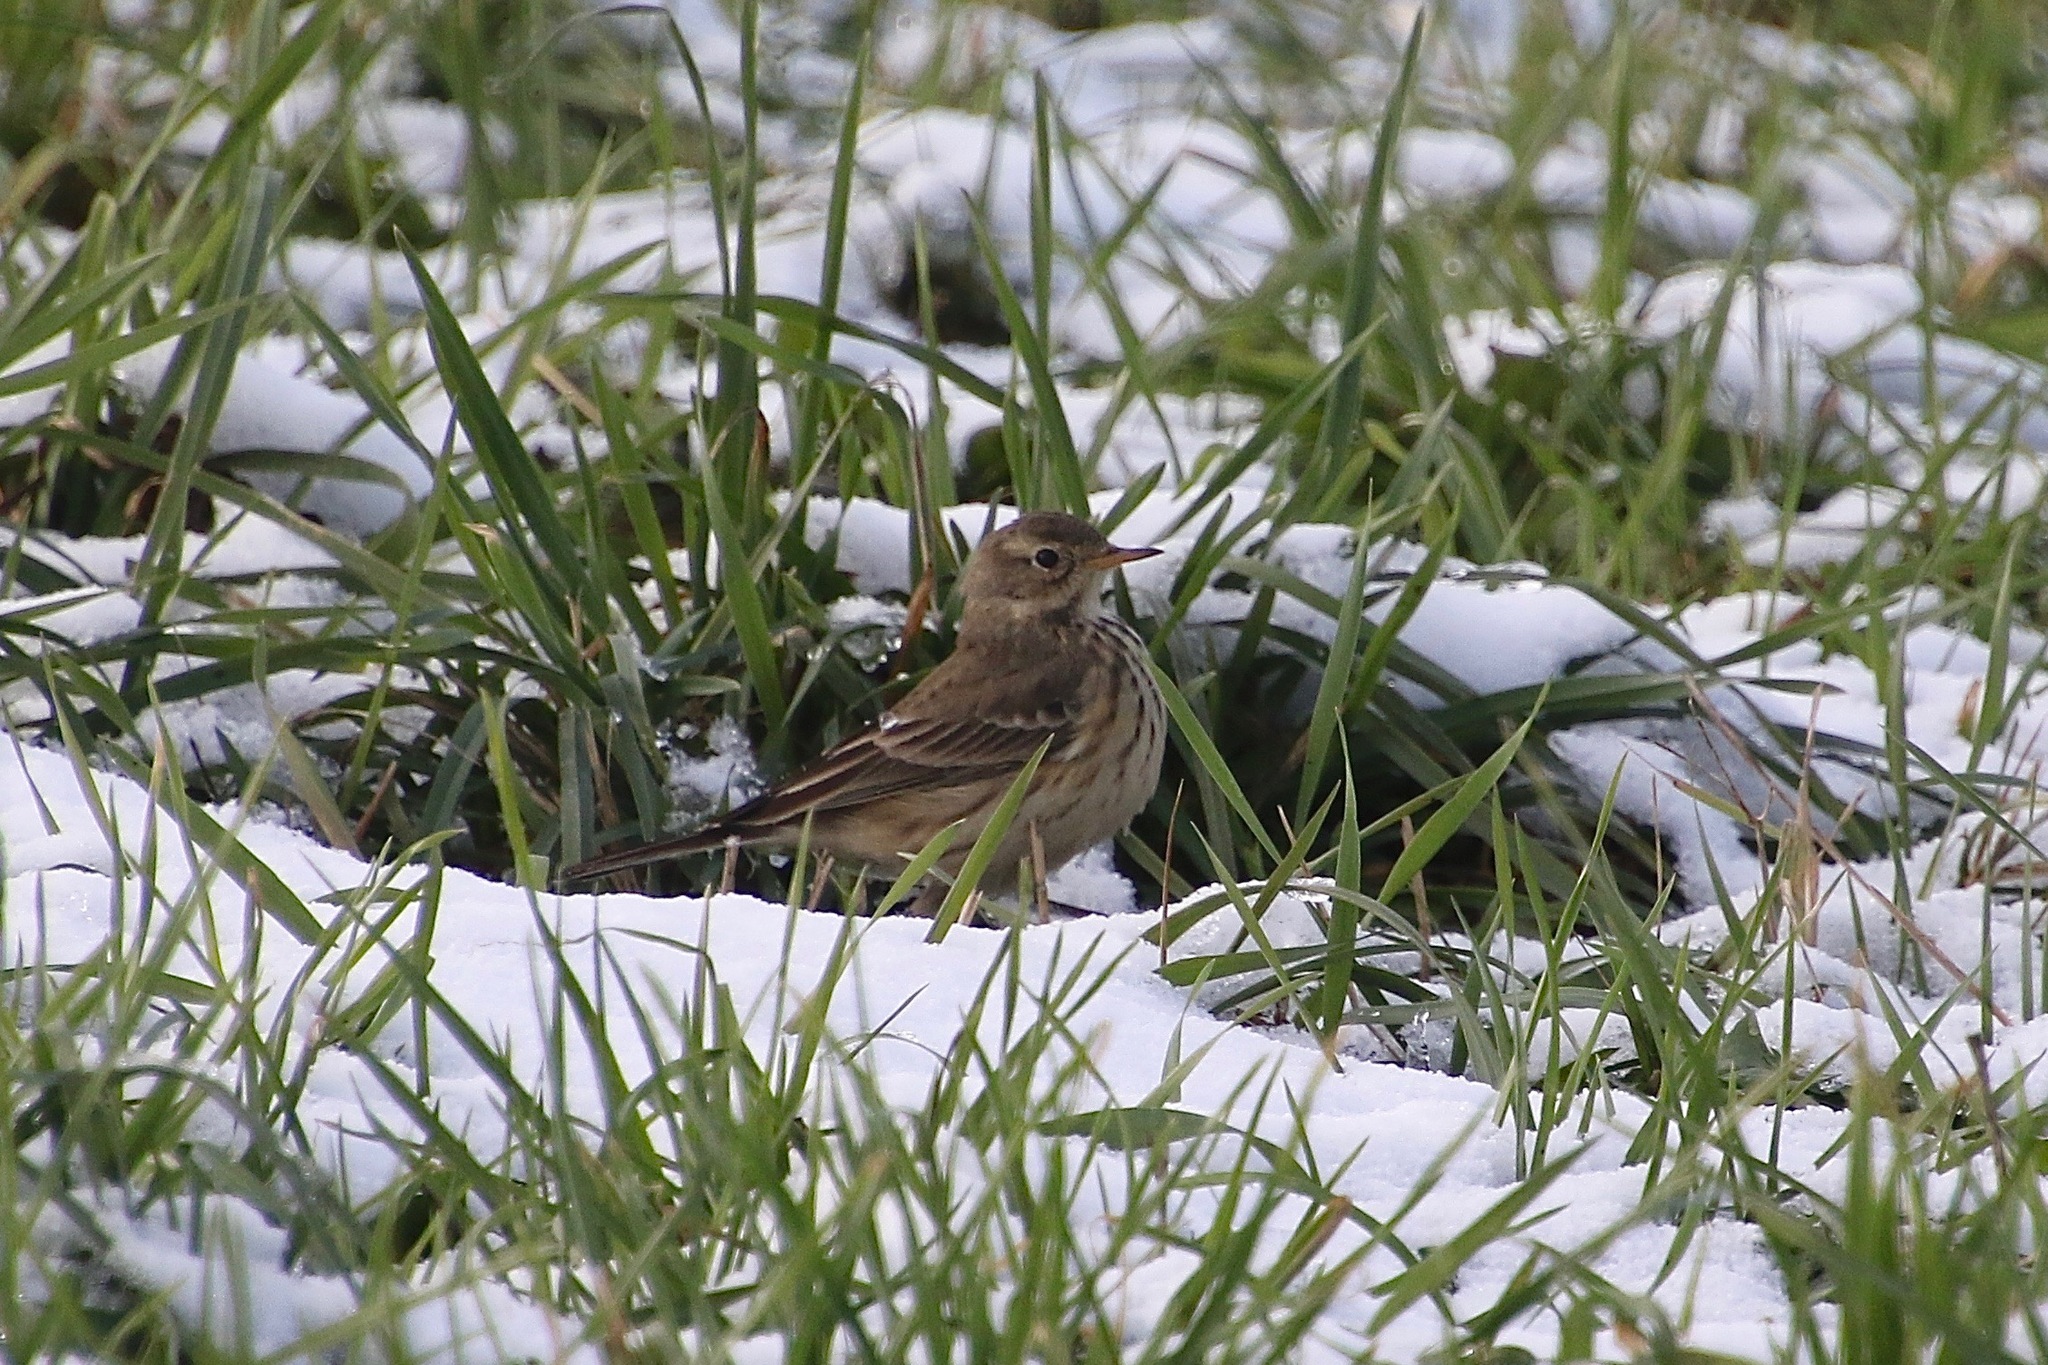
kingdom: Animalia
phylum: Chordata
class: Aves
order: Passeriformes
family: Motacillidae
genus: Anthus
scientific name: Anthus rubescens
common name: Buff-bellied pipit
